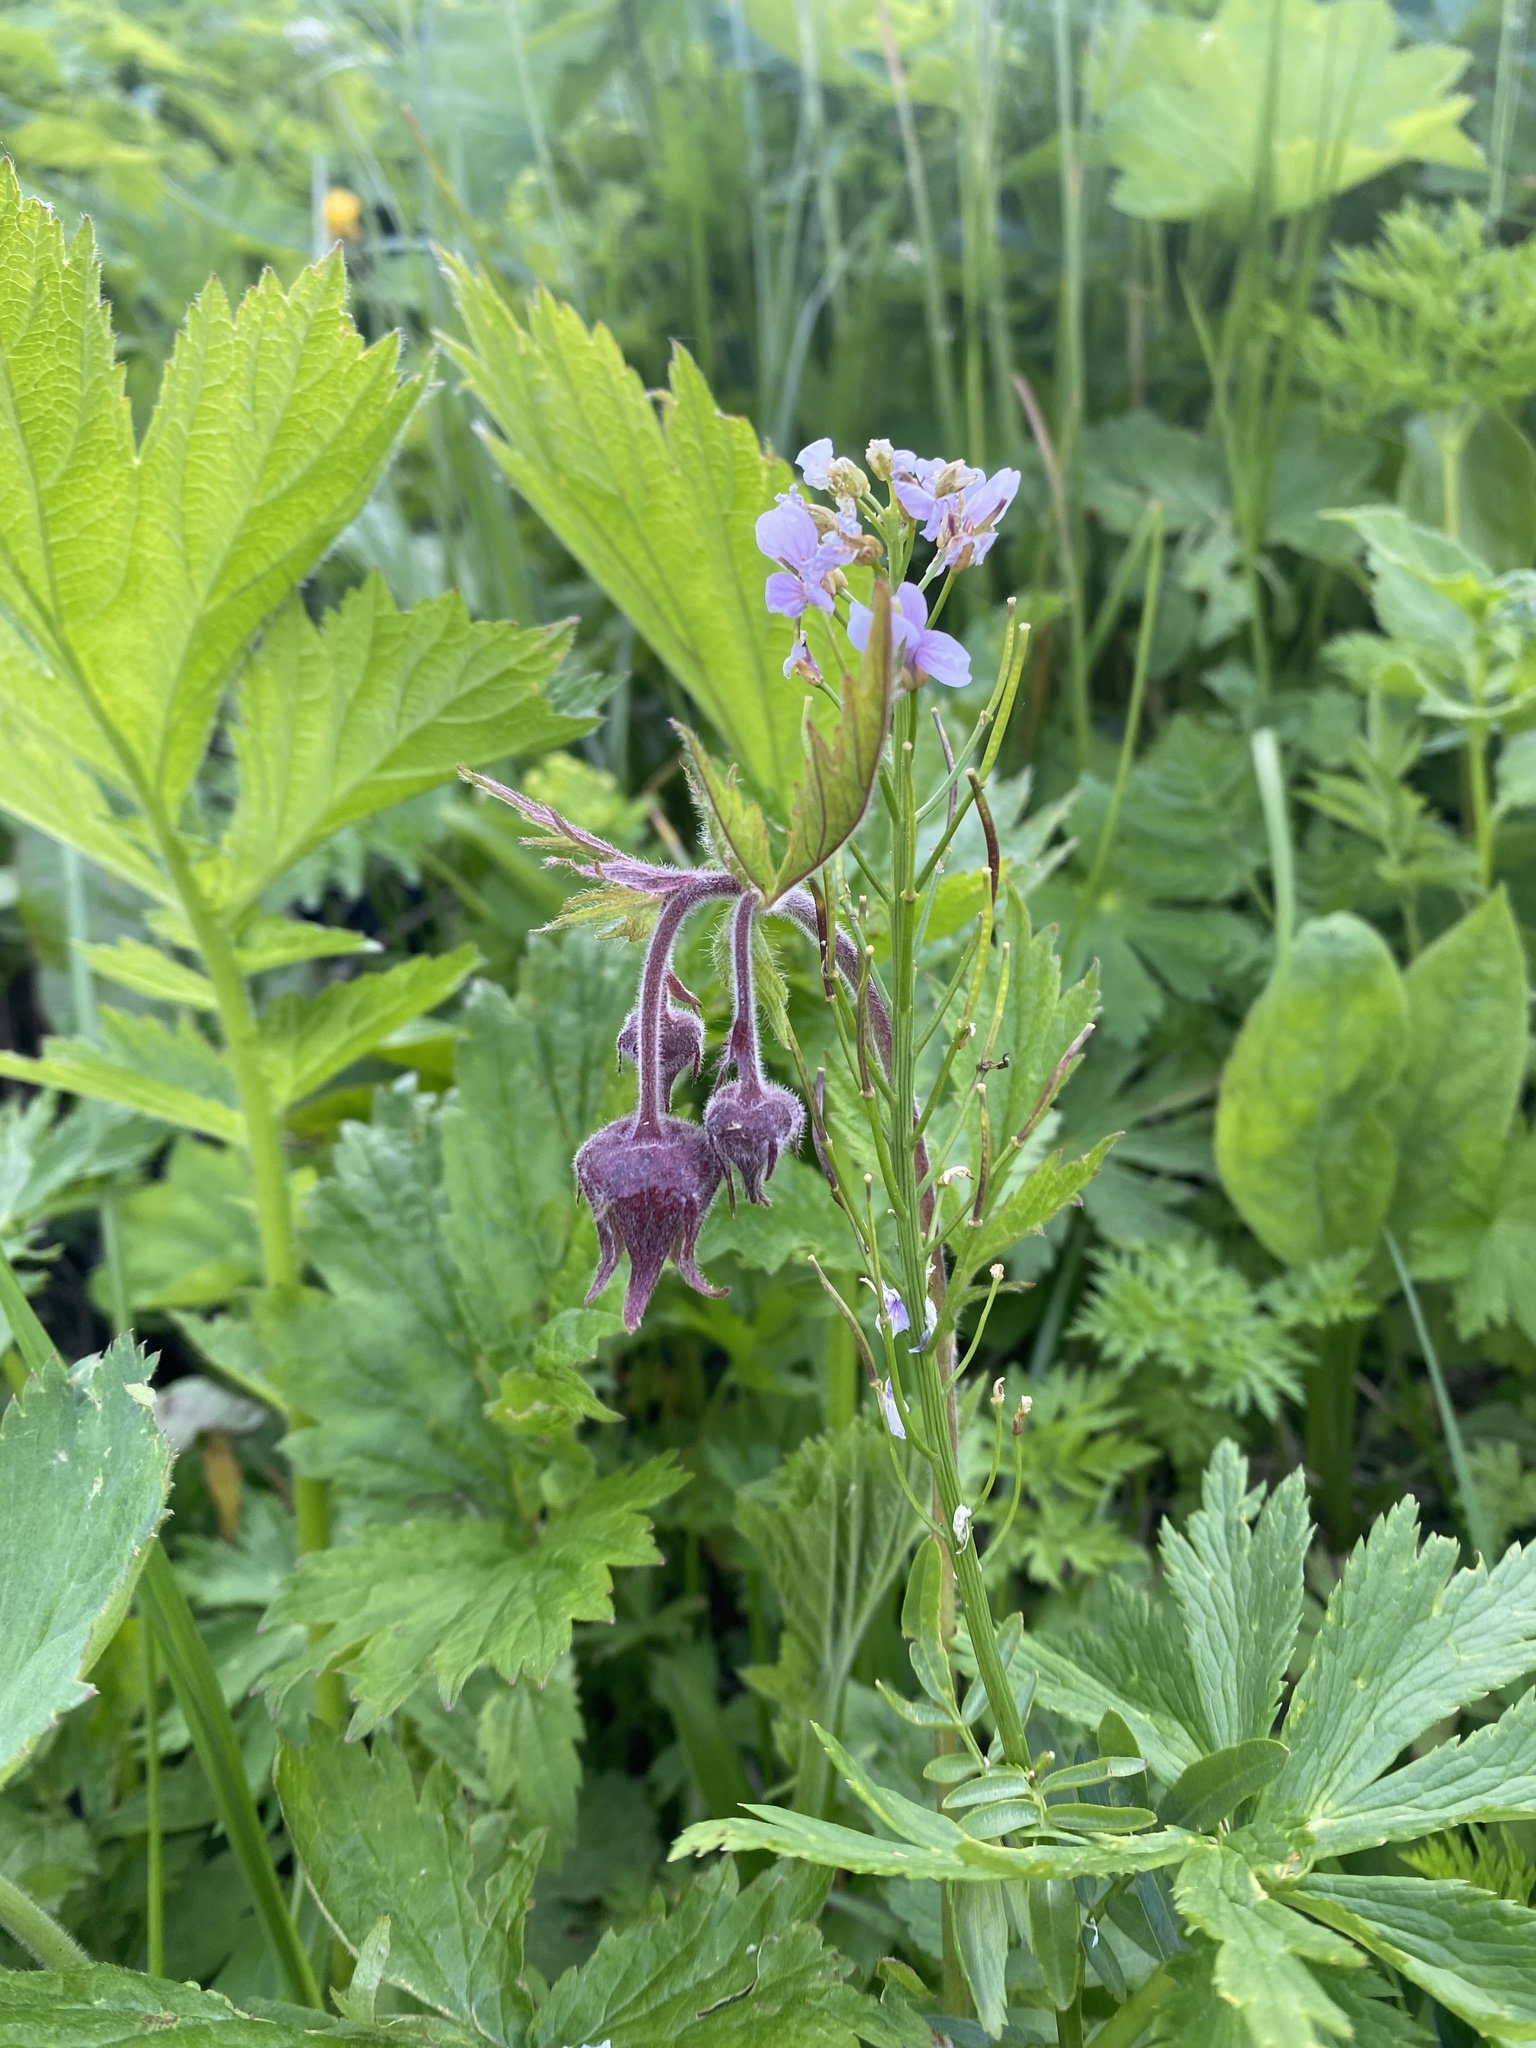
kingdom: Plantae
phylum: Tracheophyta
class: Magnoliopsida
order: Rosales
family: Rosaceae
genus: Geum
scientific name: Geum rivale
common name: Water avens
